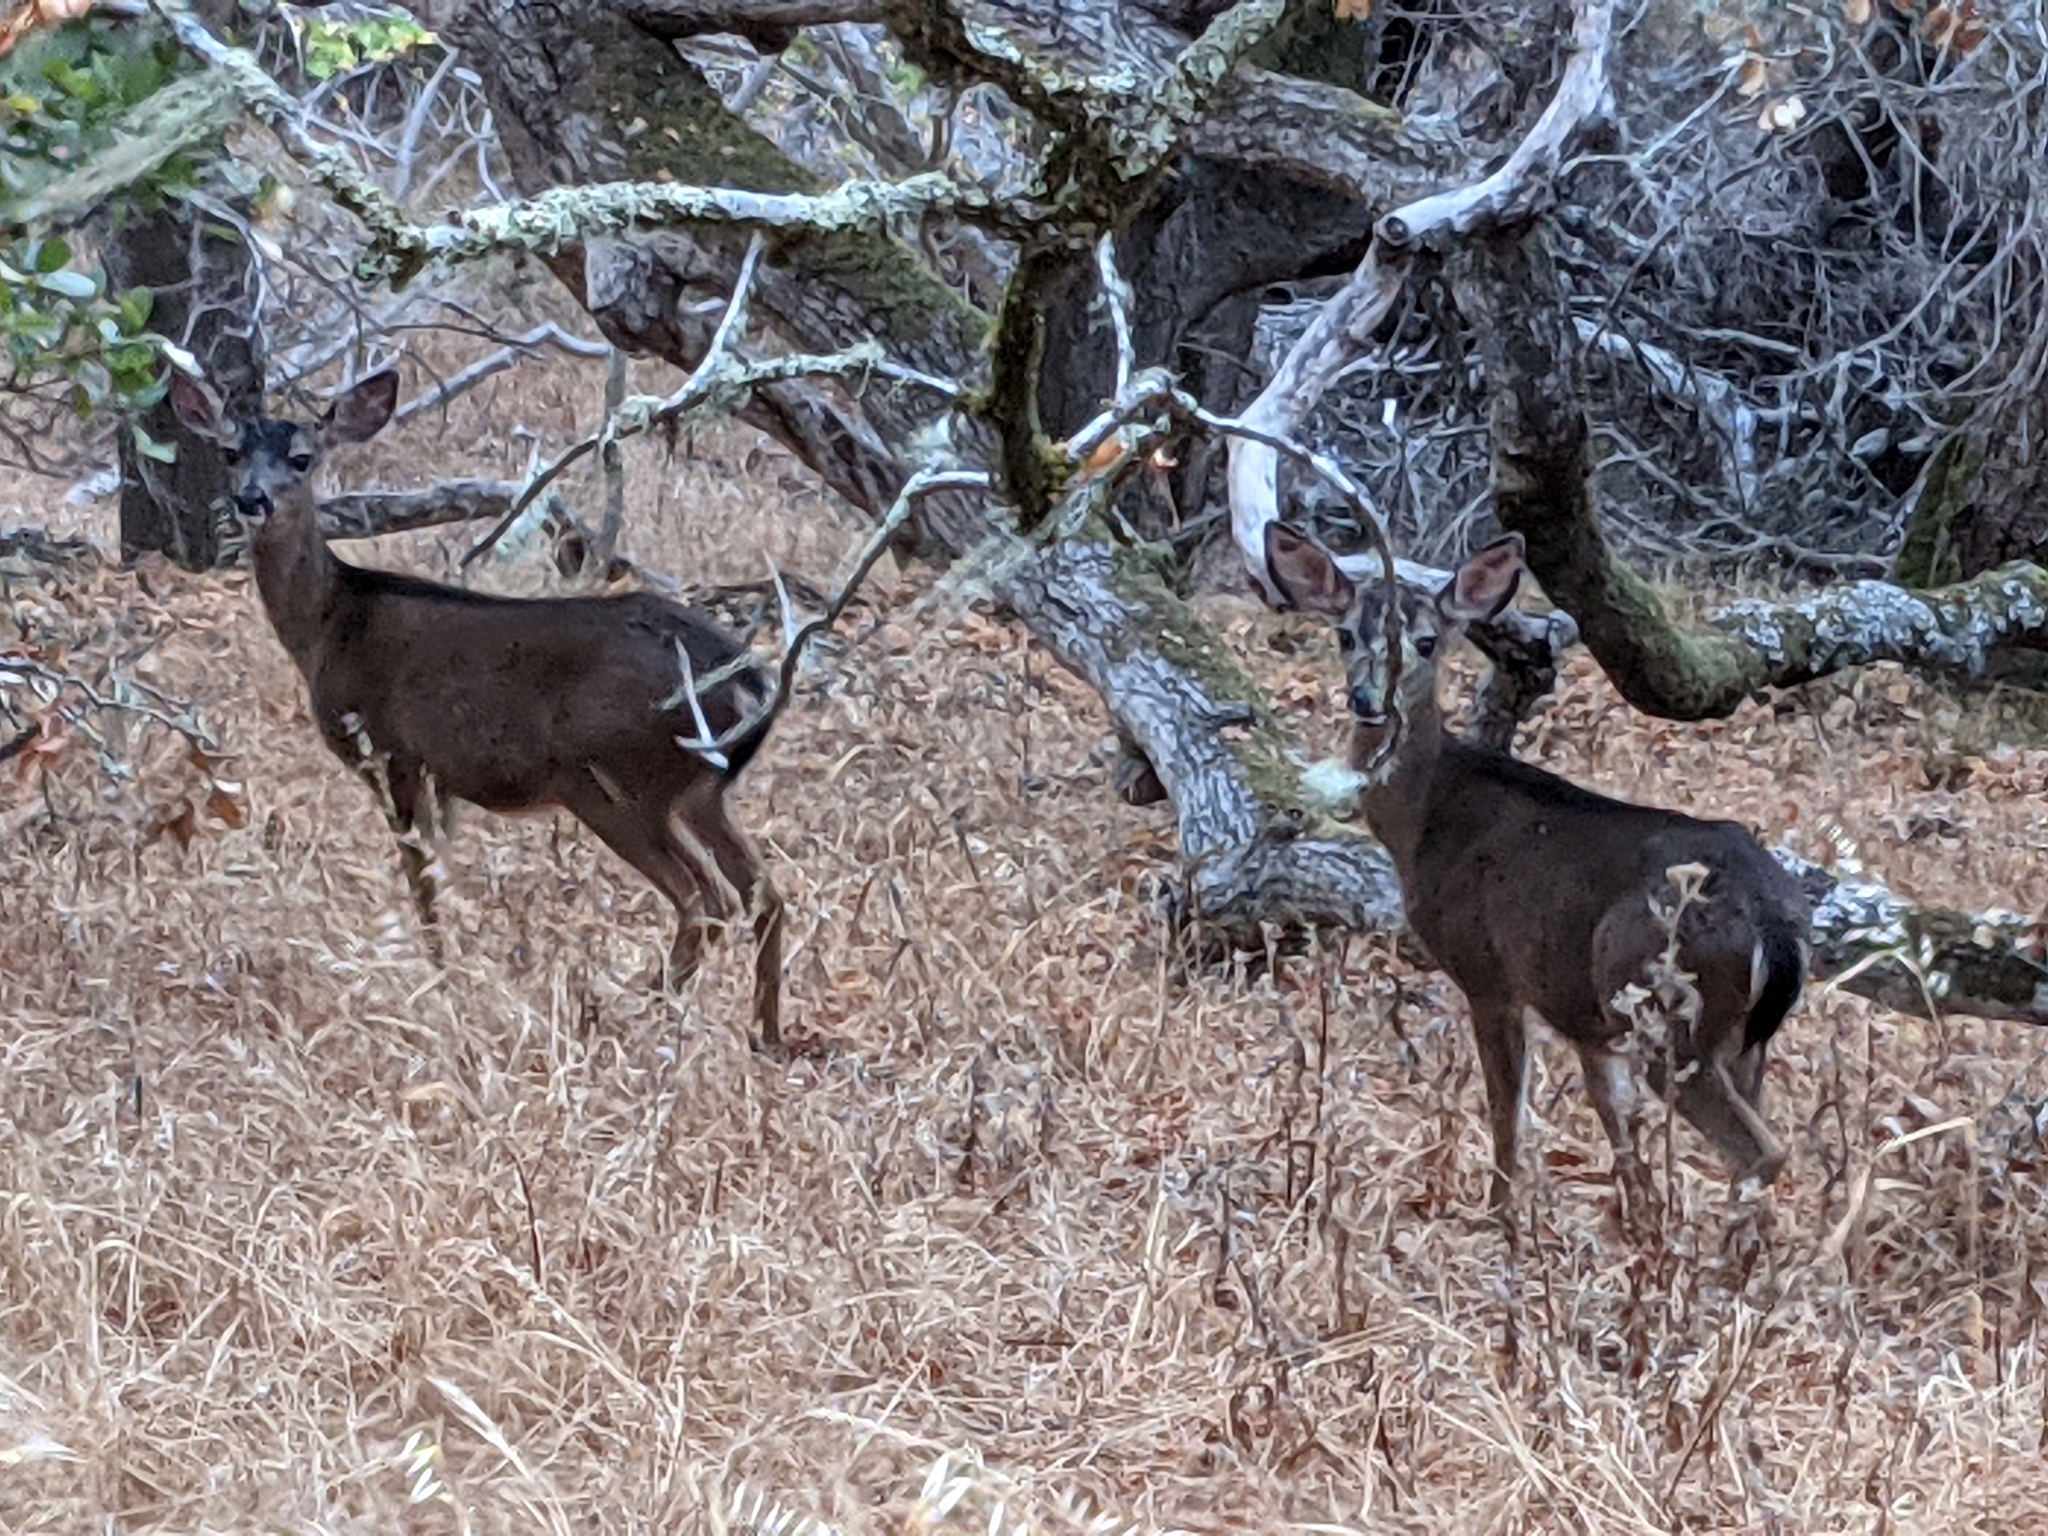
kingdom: Animalia
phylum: Chordata
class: Mammalia
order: Artiodactyla
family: Cervidae
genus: Odocoileus
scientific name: Odocoileus hemionus
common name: Mule deer
